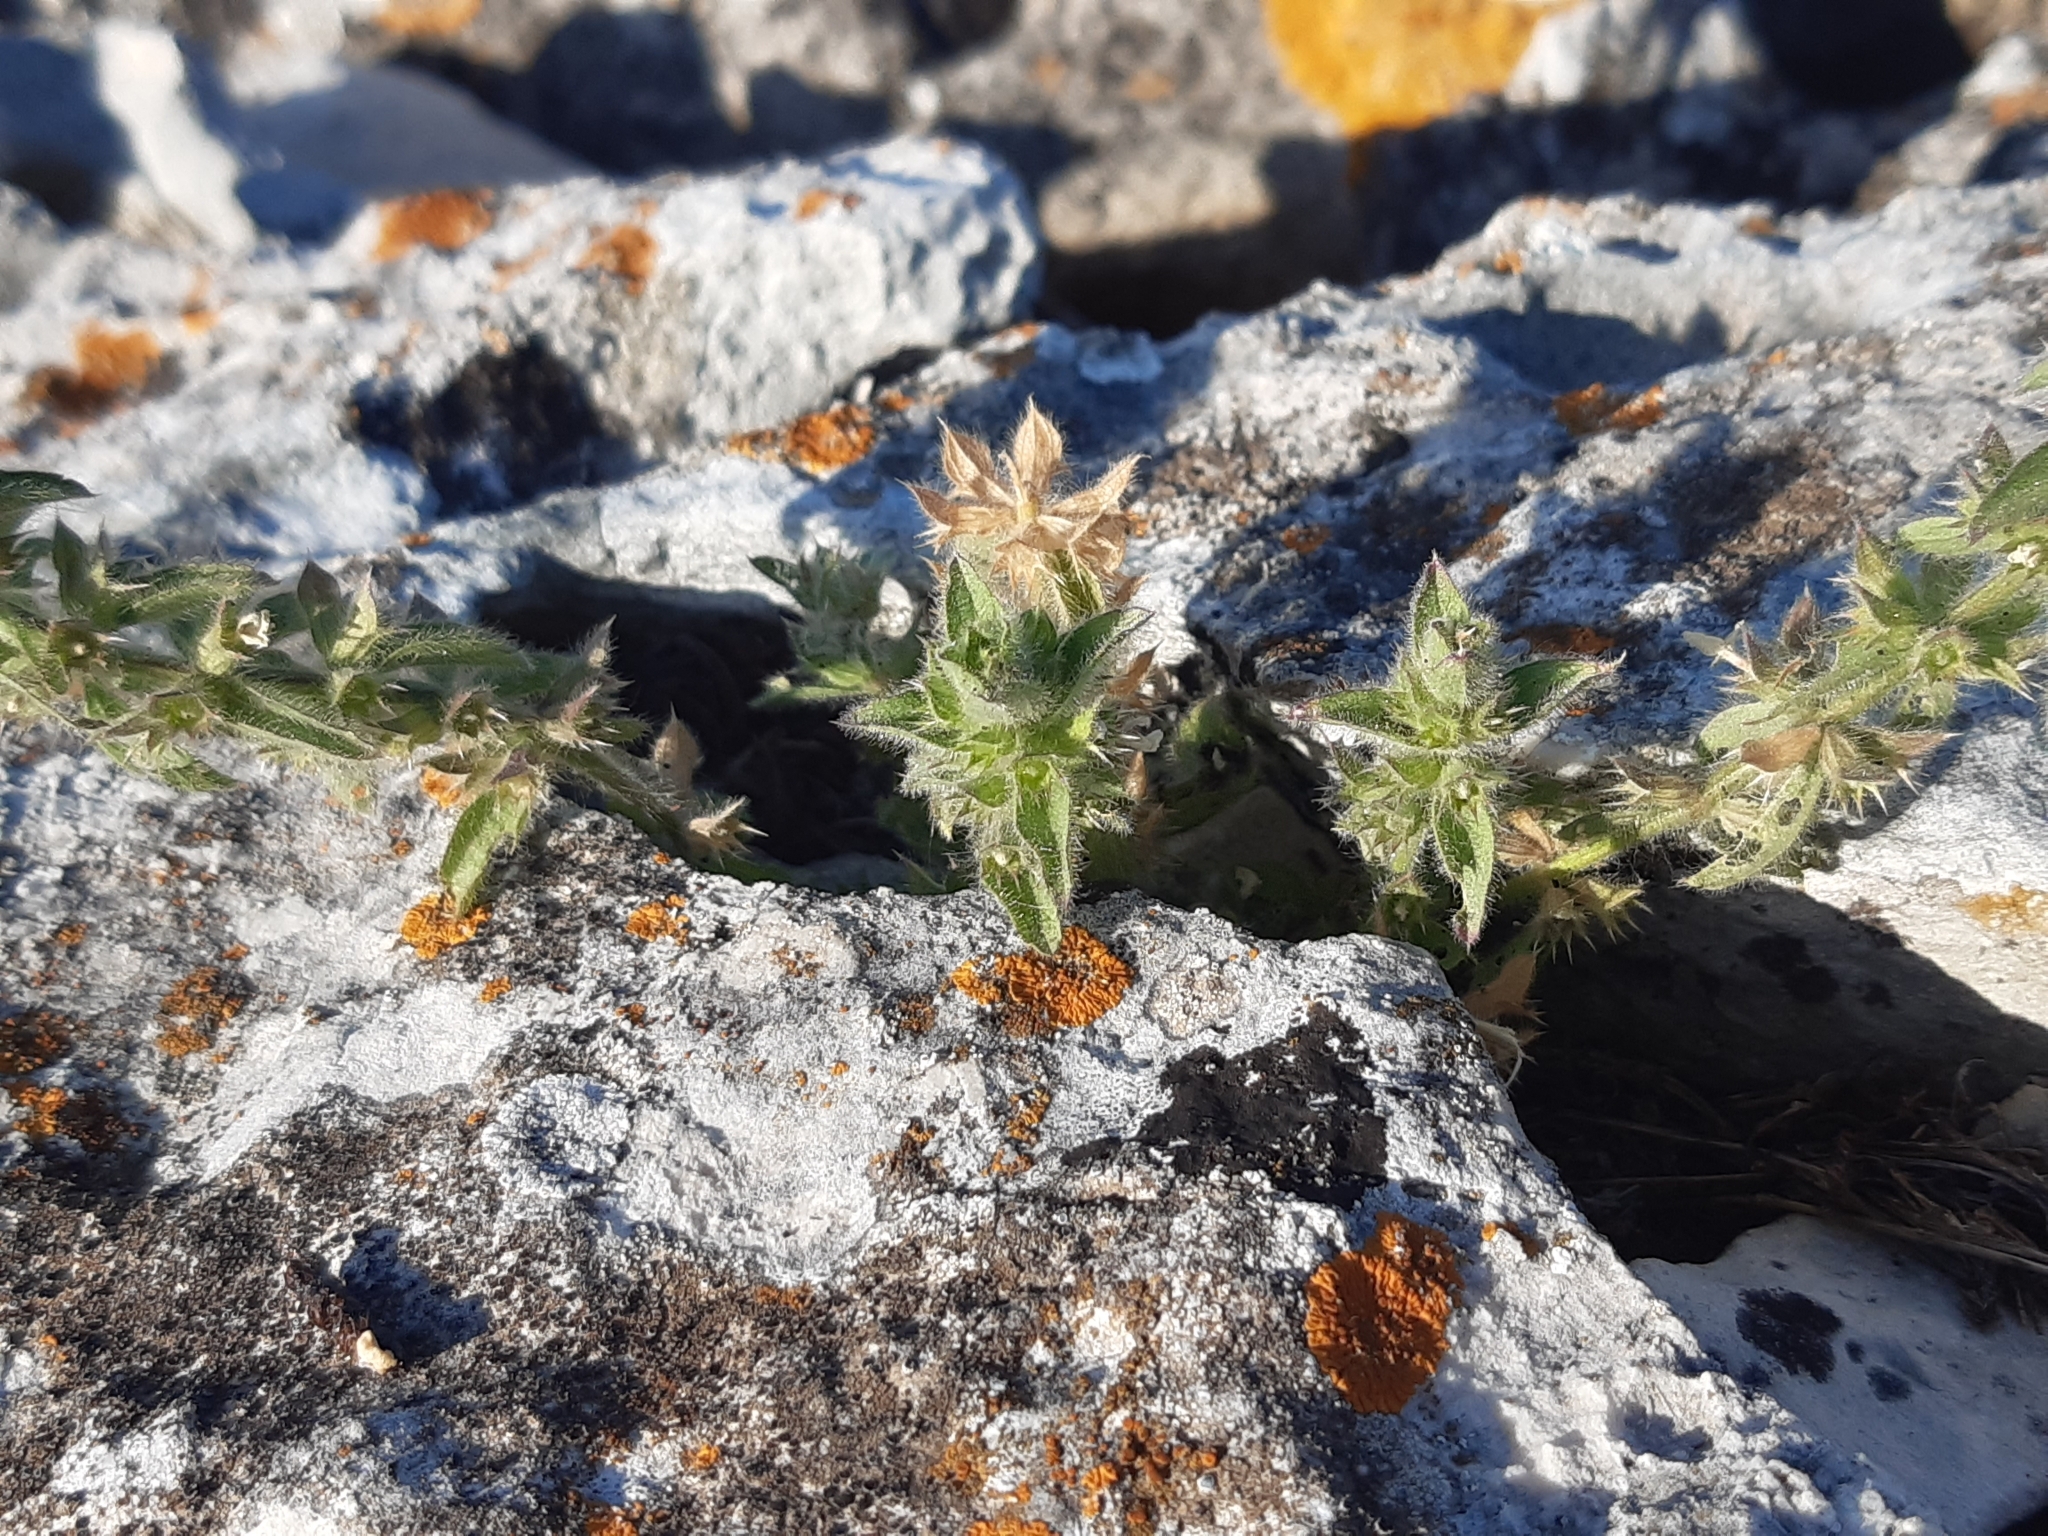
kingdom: Plantae
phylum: Tracheophyta
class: Magnoliopsida
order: Lamiales
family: Lamiaceae
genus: Sideritis
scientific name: Sideritis romana
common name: Simplebeak ironwort
